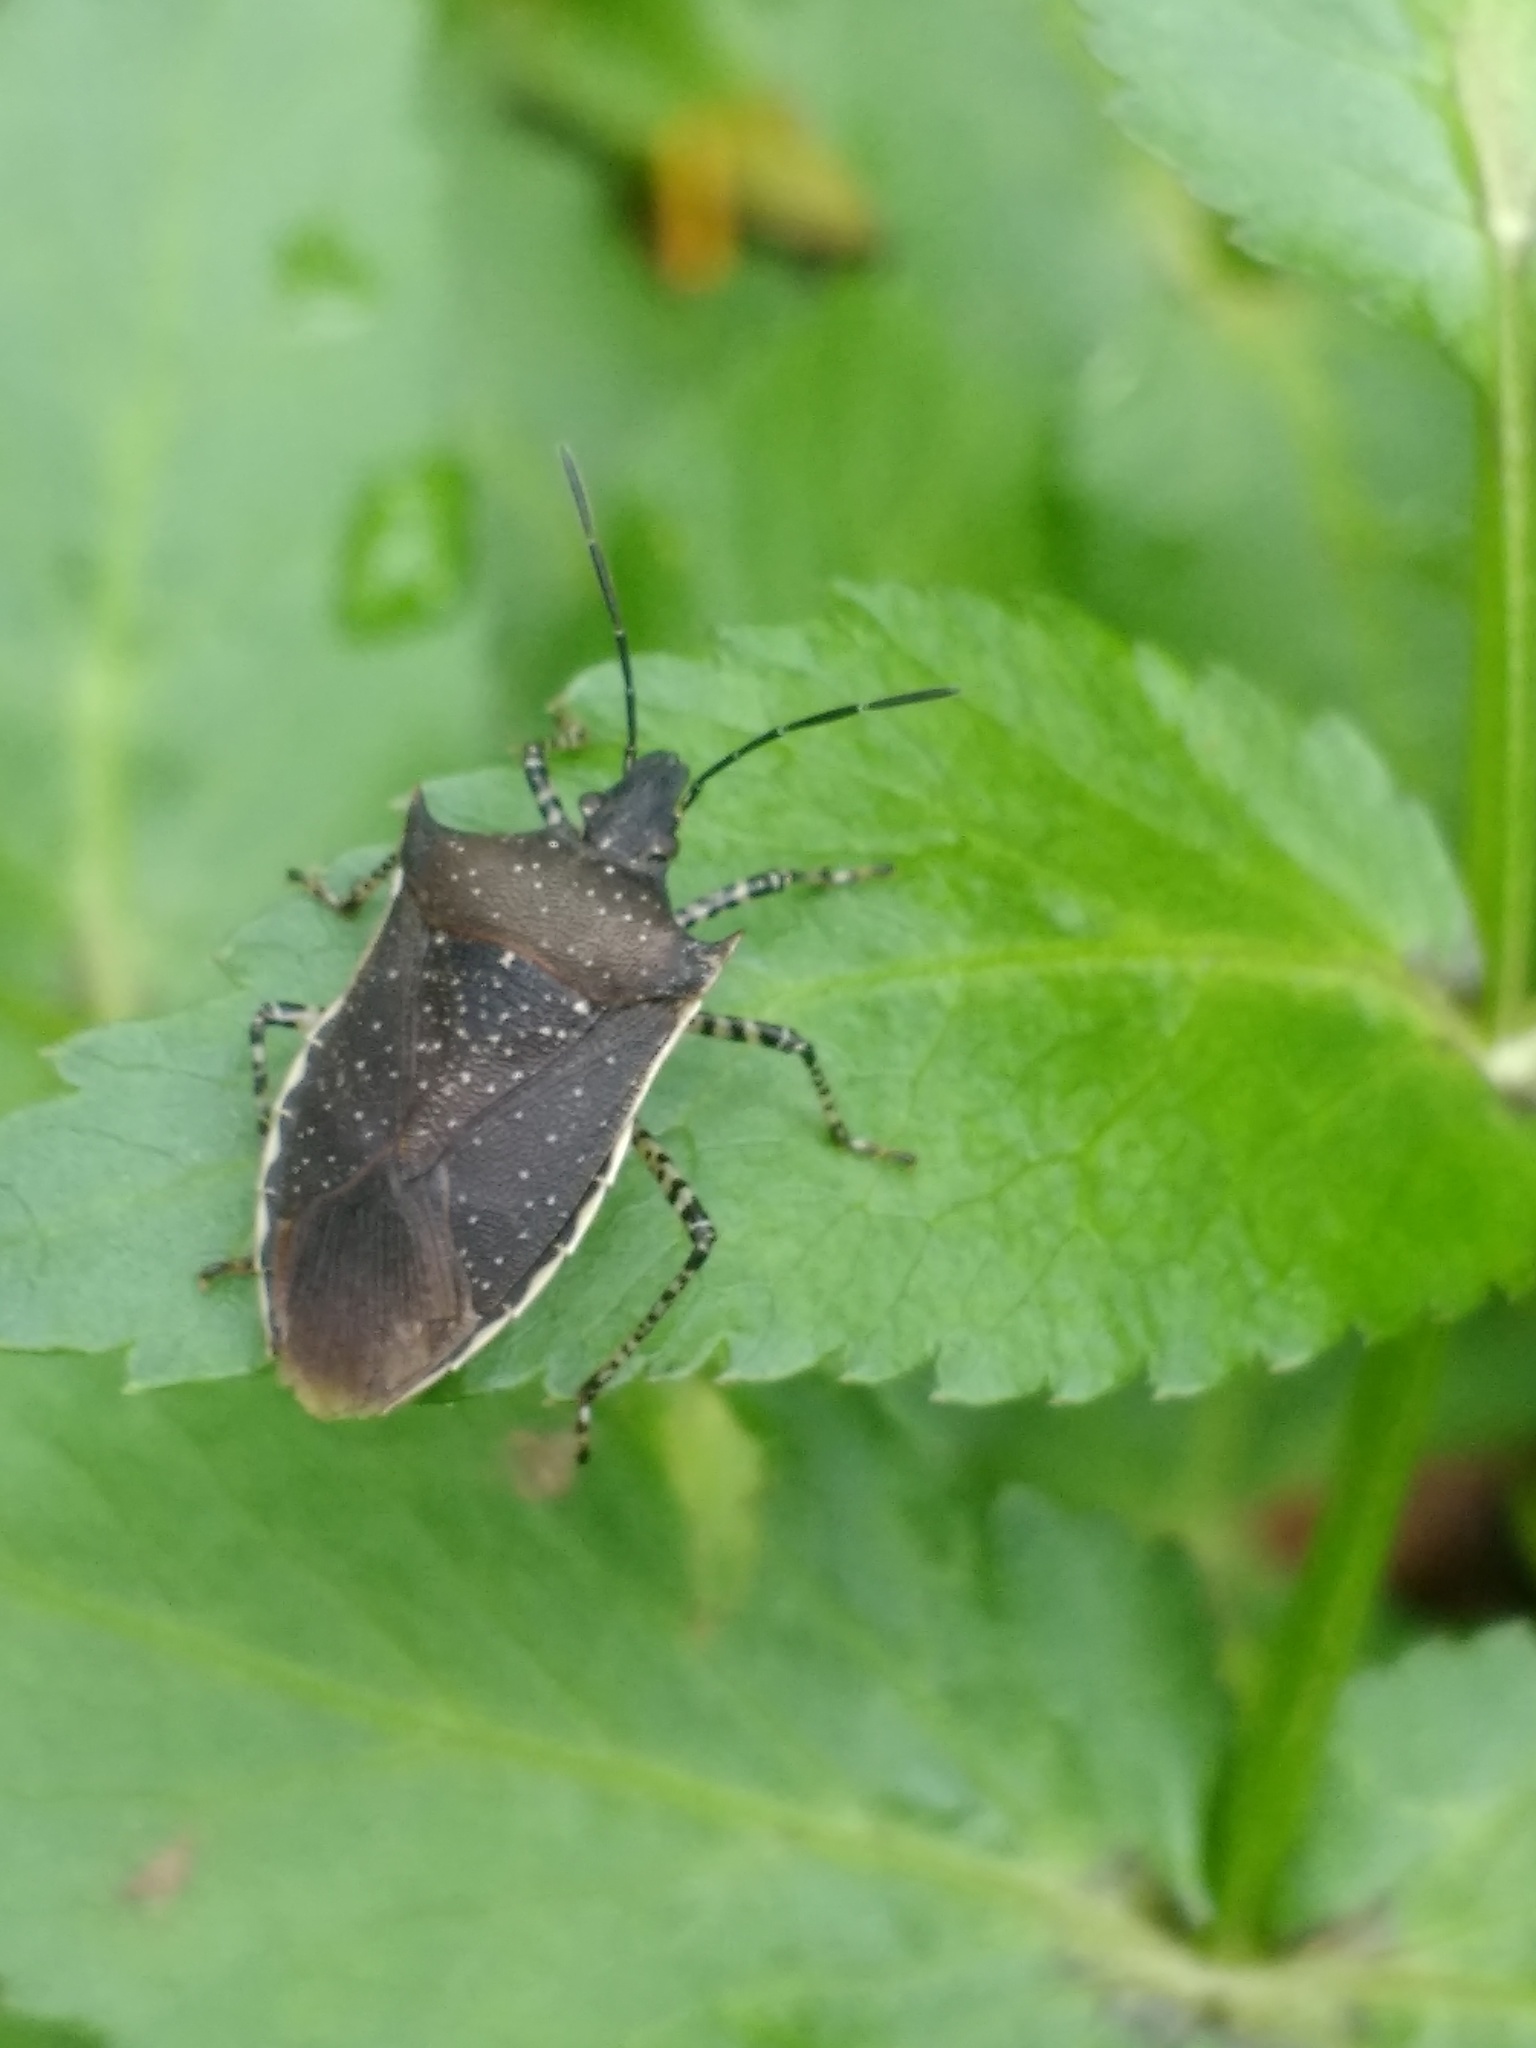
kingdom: Animalia
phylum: Arthropoda
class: Insecta
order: Hemiptera
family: Pentatomidae
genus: Padaeus
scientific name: Padaeus trivittatus
